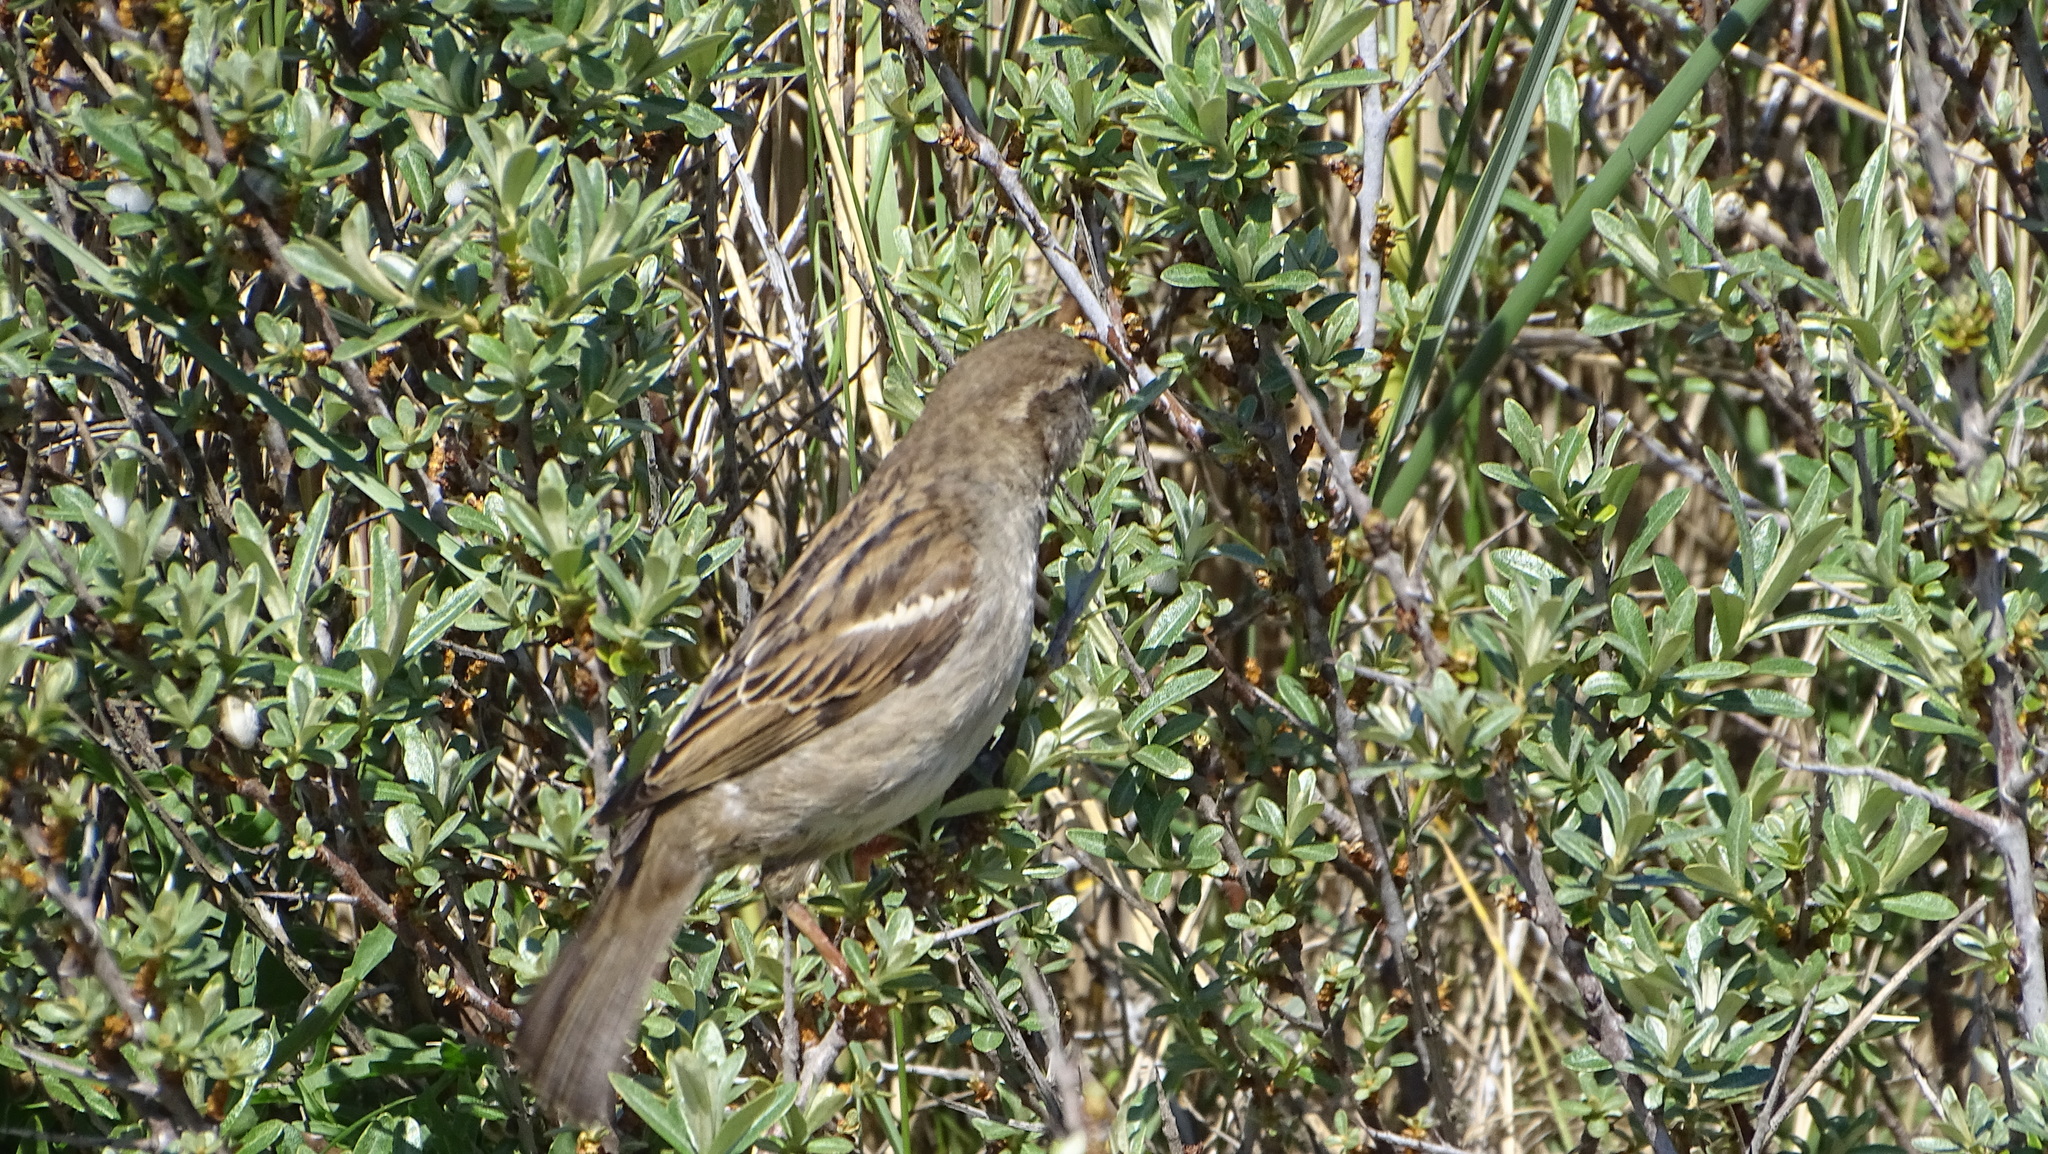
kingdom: Animalia
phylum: Chordata
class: Aves
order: Passeriformes
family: Passeridae
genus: Passer
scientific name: Passer domesticus
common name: House sparrow
